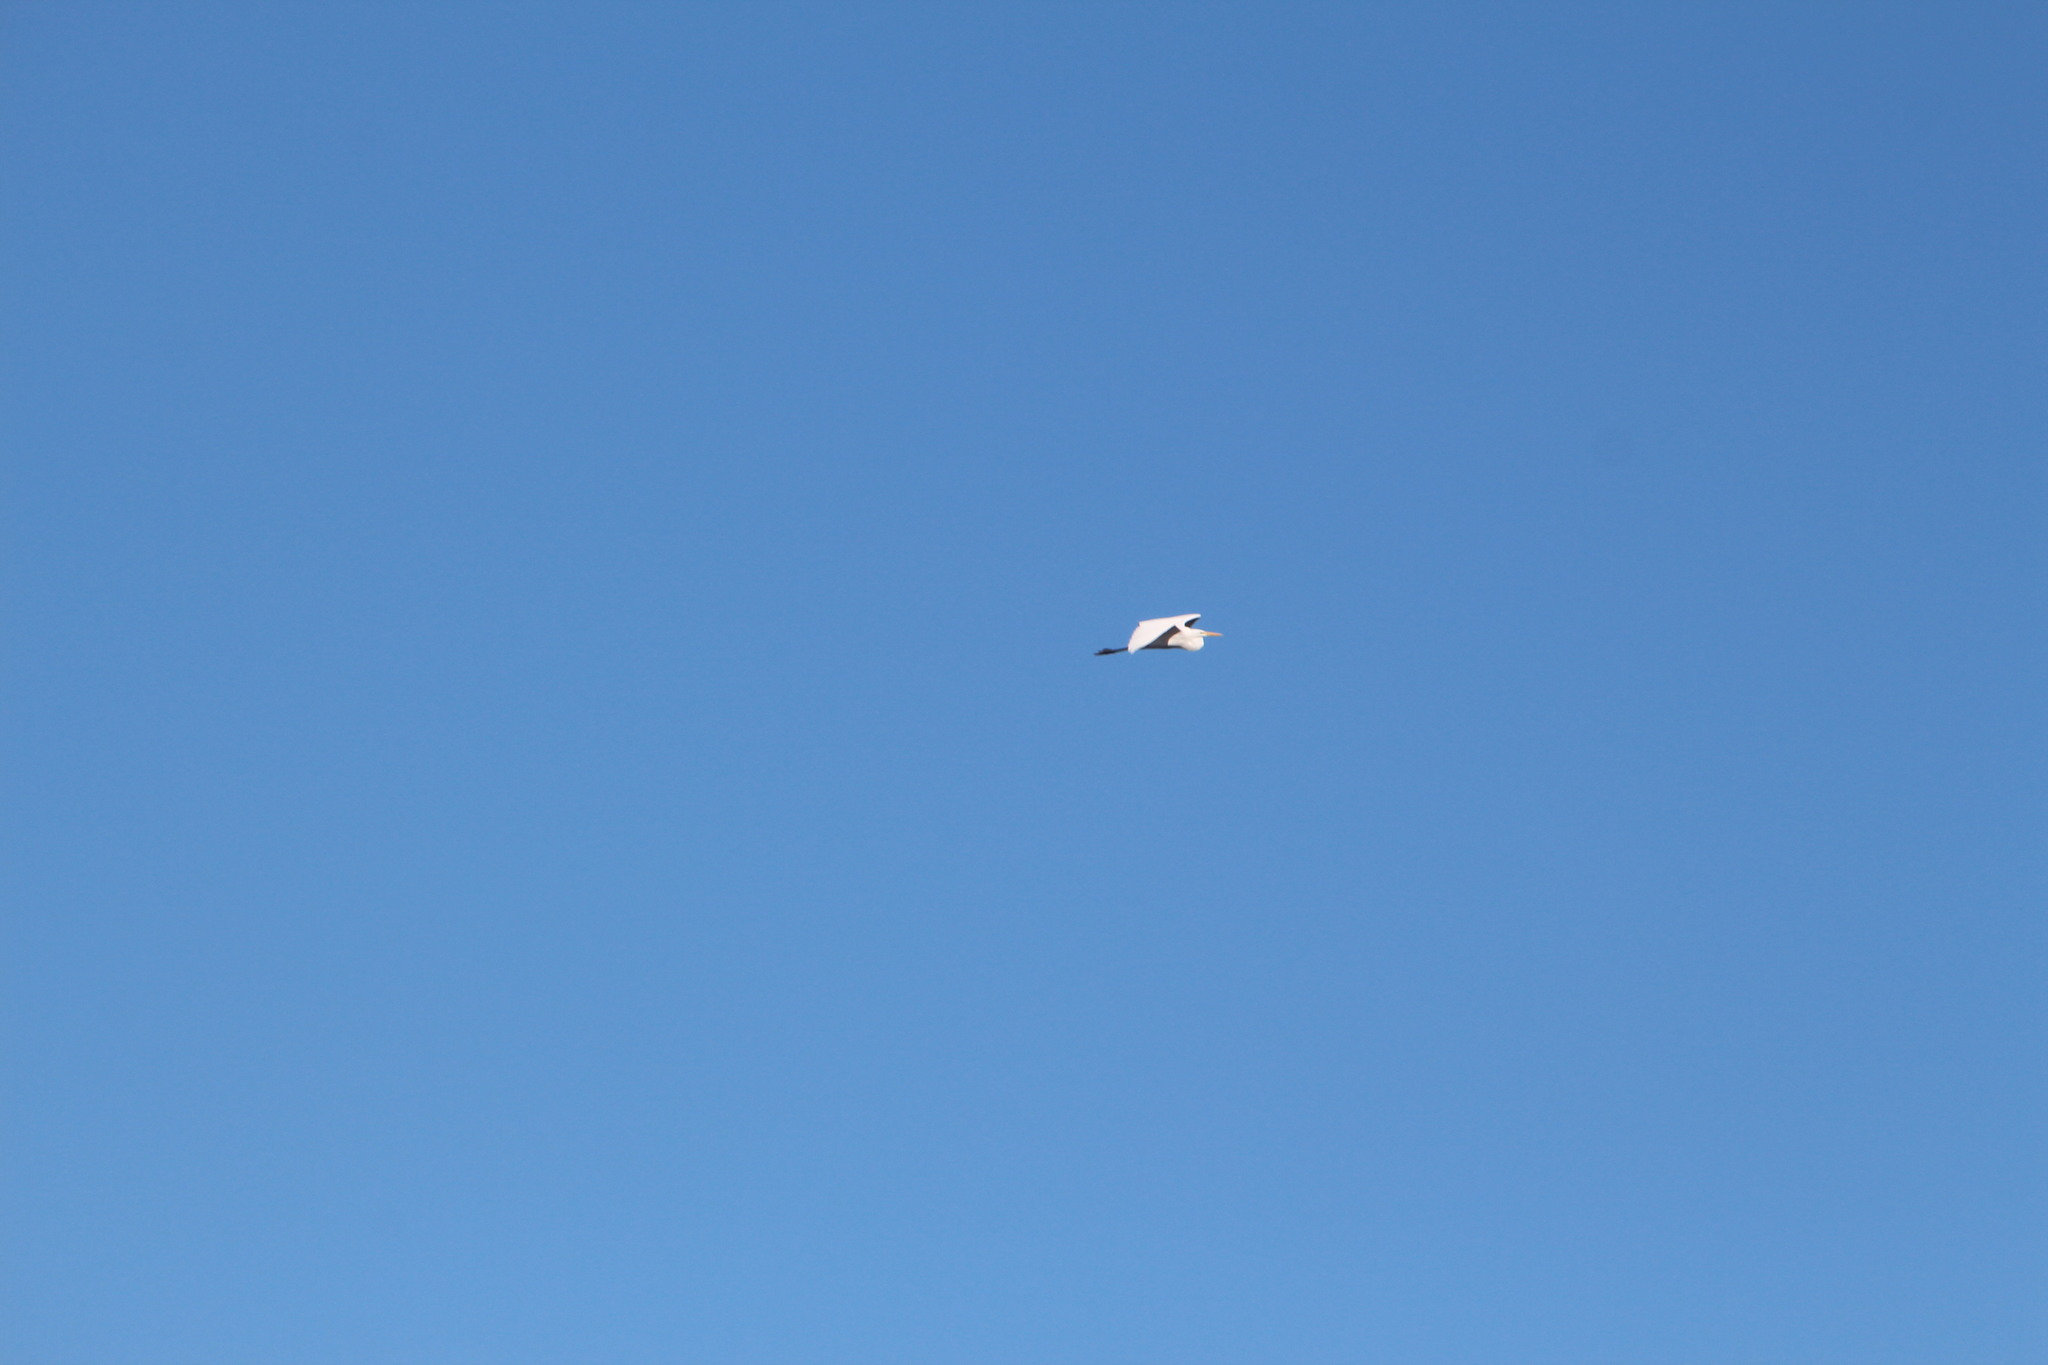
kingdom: Animalia
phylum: Chordata
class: Aves
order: Pelecaniformes
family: Ardeidae
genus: Ardea
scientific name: Ardea alba
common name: Great egret
